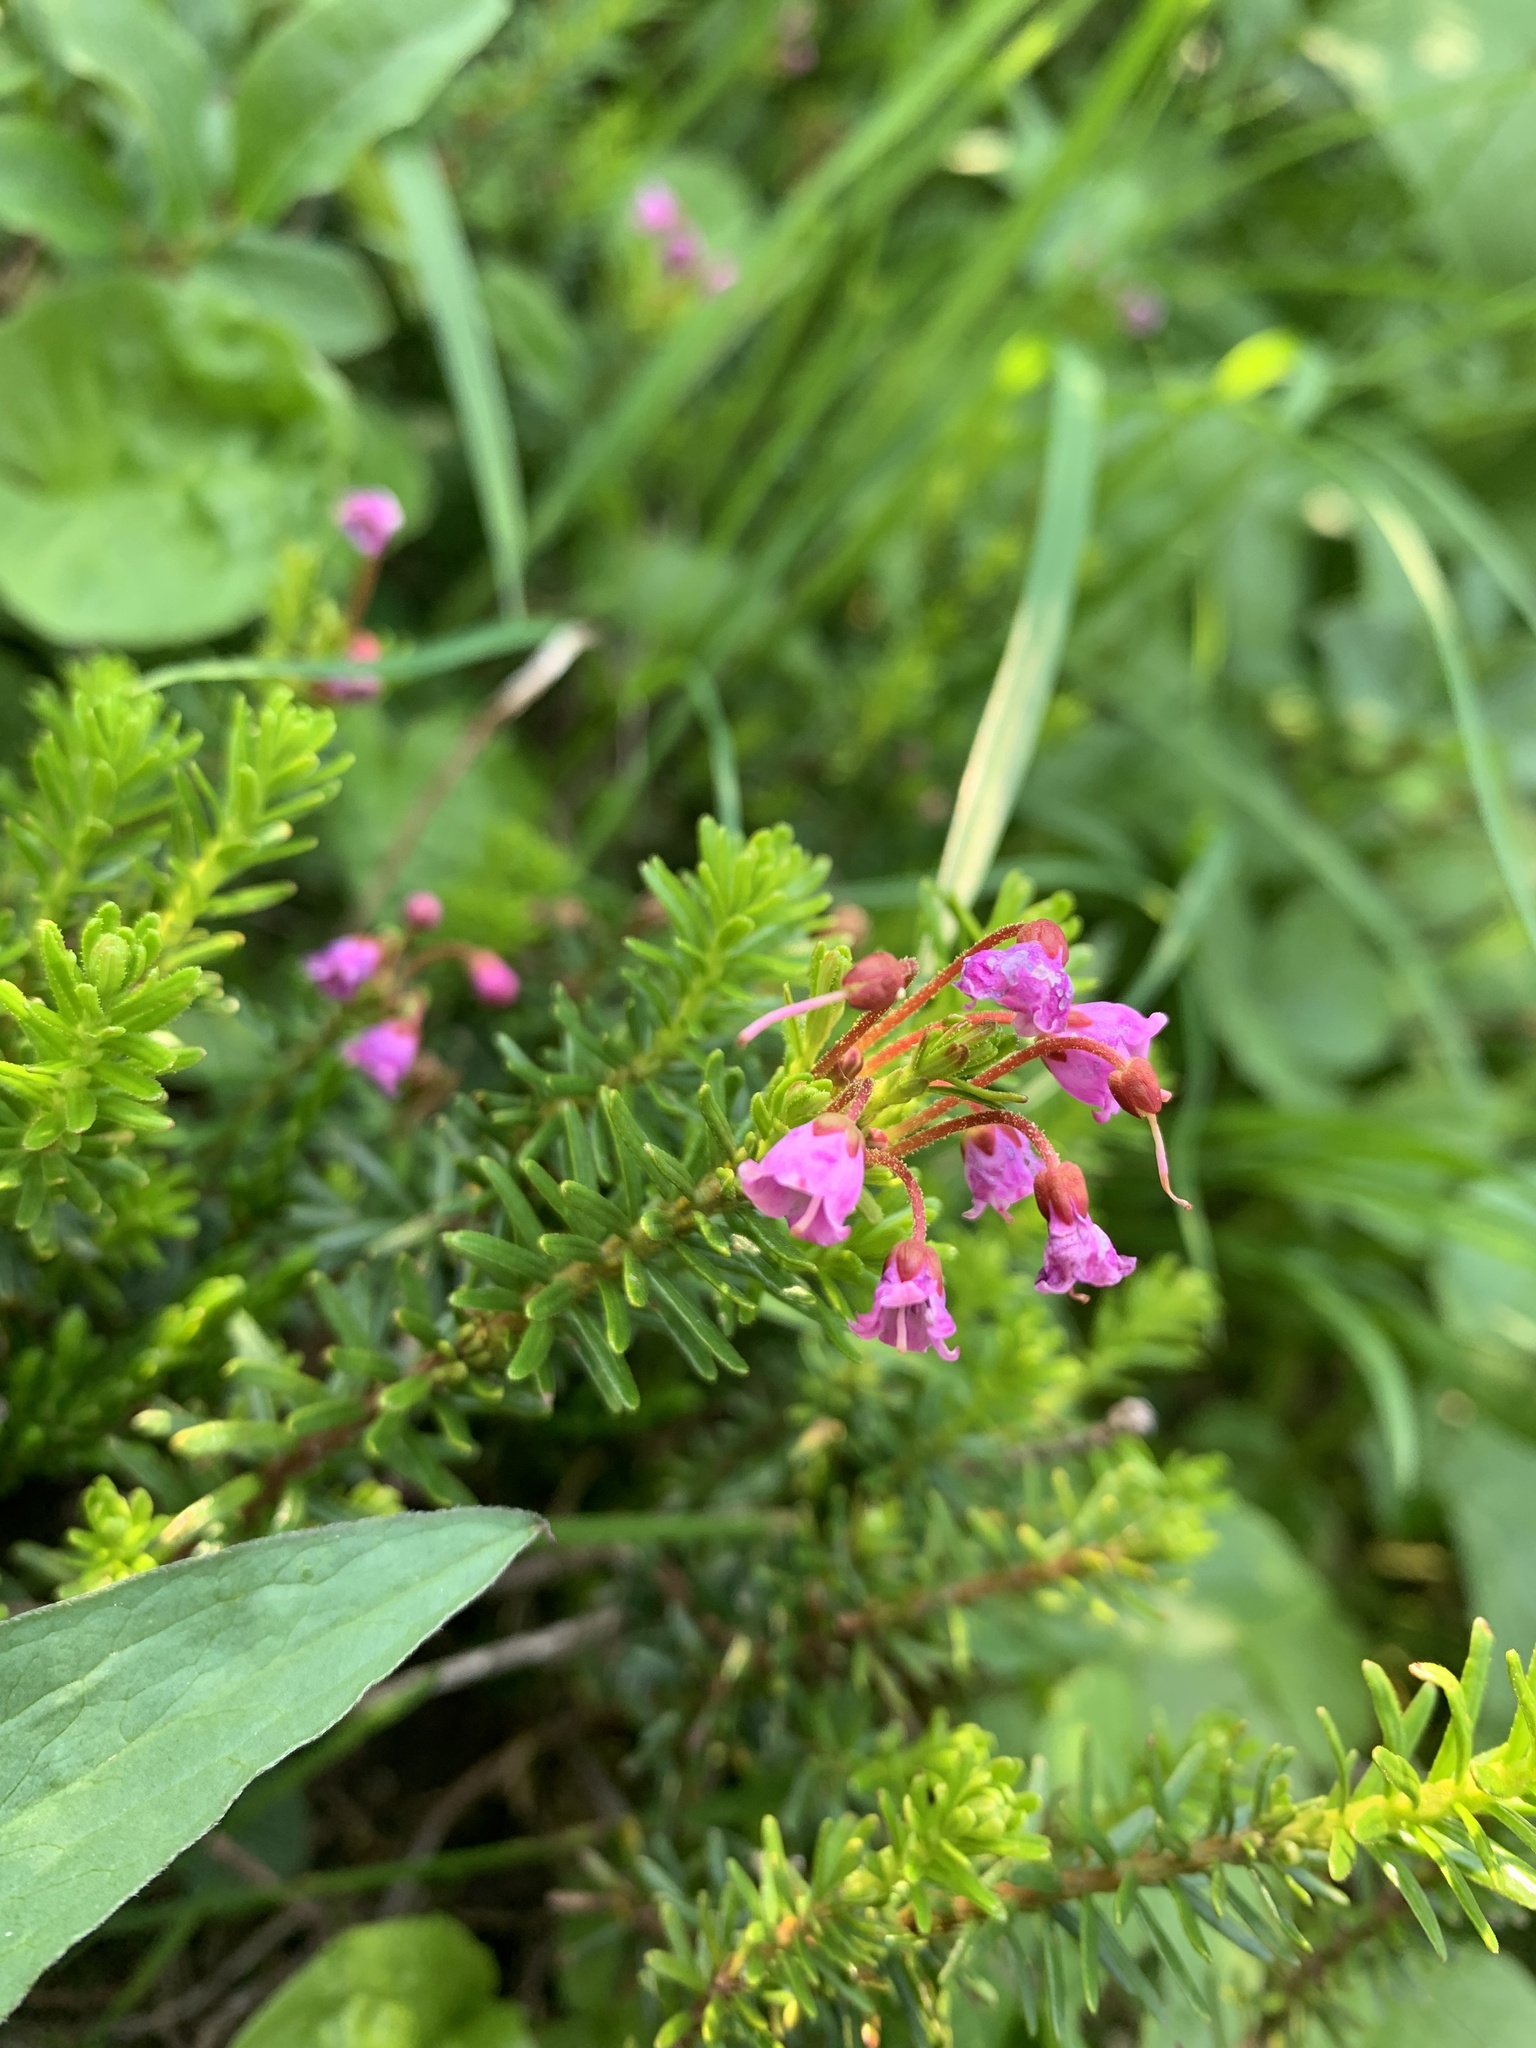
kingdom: Plantae
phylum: Tracheophyta
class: Magnoliopsida
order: Ericales
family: Ericaceae
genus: Phyllodoce
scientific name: Phyllodoce empetriformis
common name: Pink mountain heather
